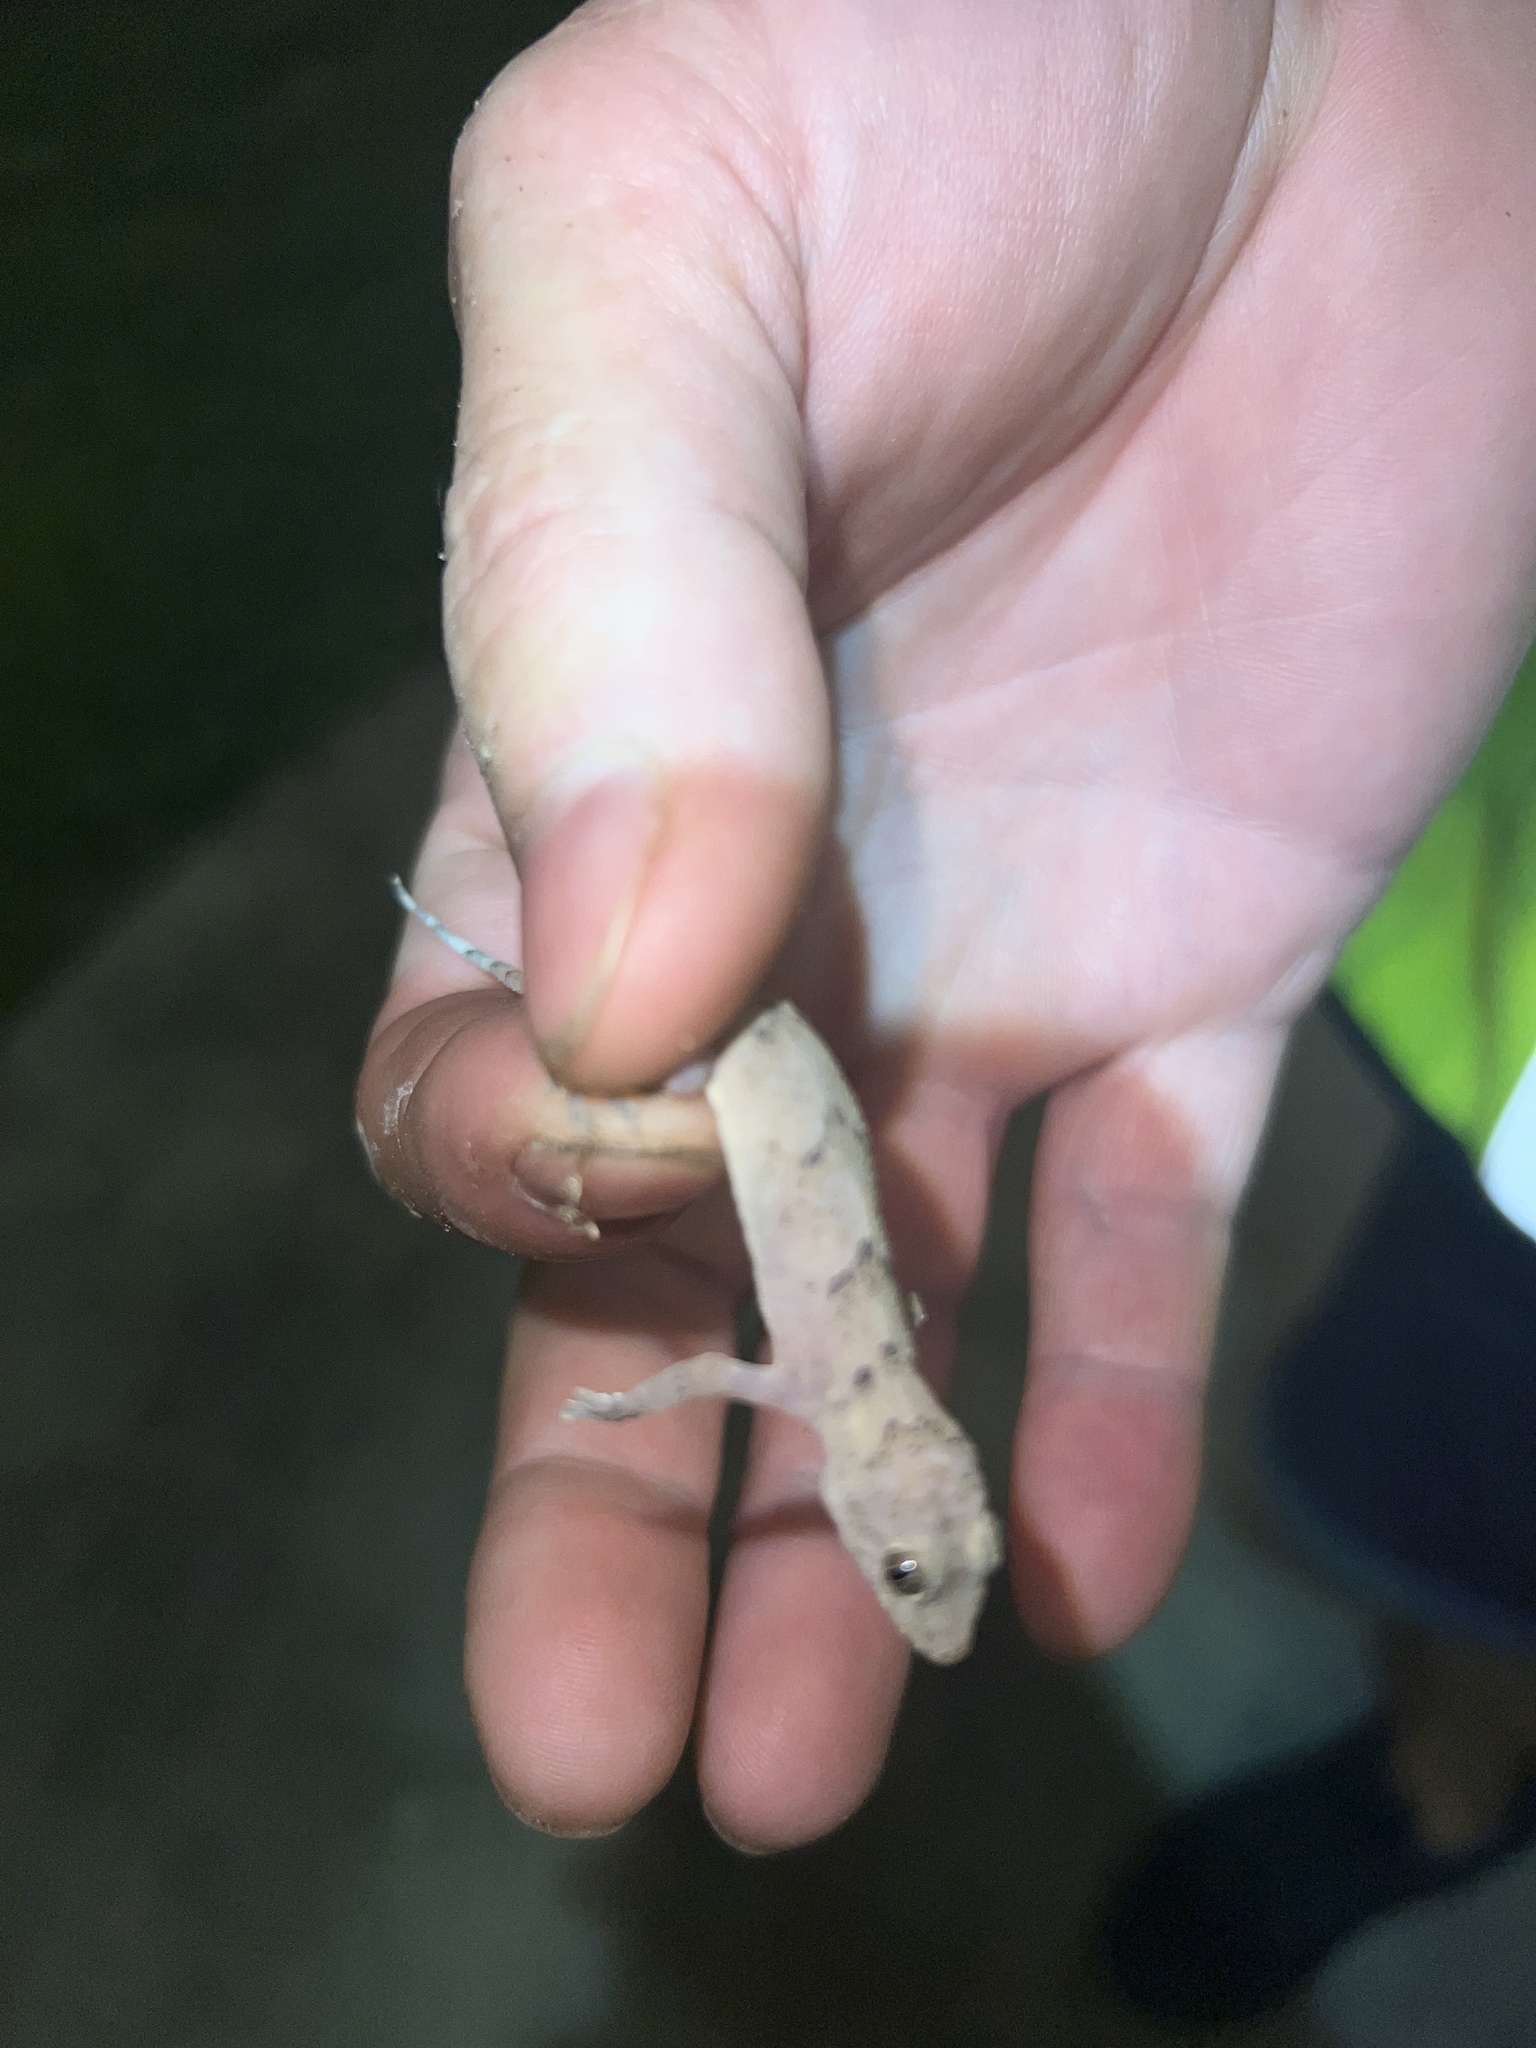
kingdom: Animalia
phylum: Chordata
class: Squamata
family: Gekkonidae
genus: Hemidactylus
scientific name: Hemidactylus mabouia
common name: House gecko
